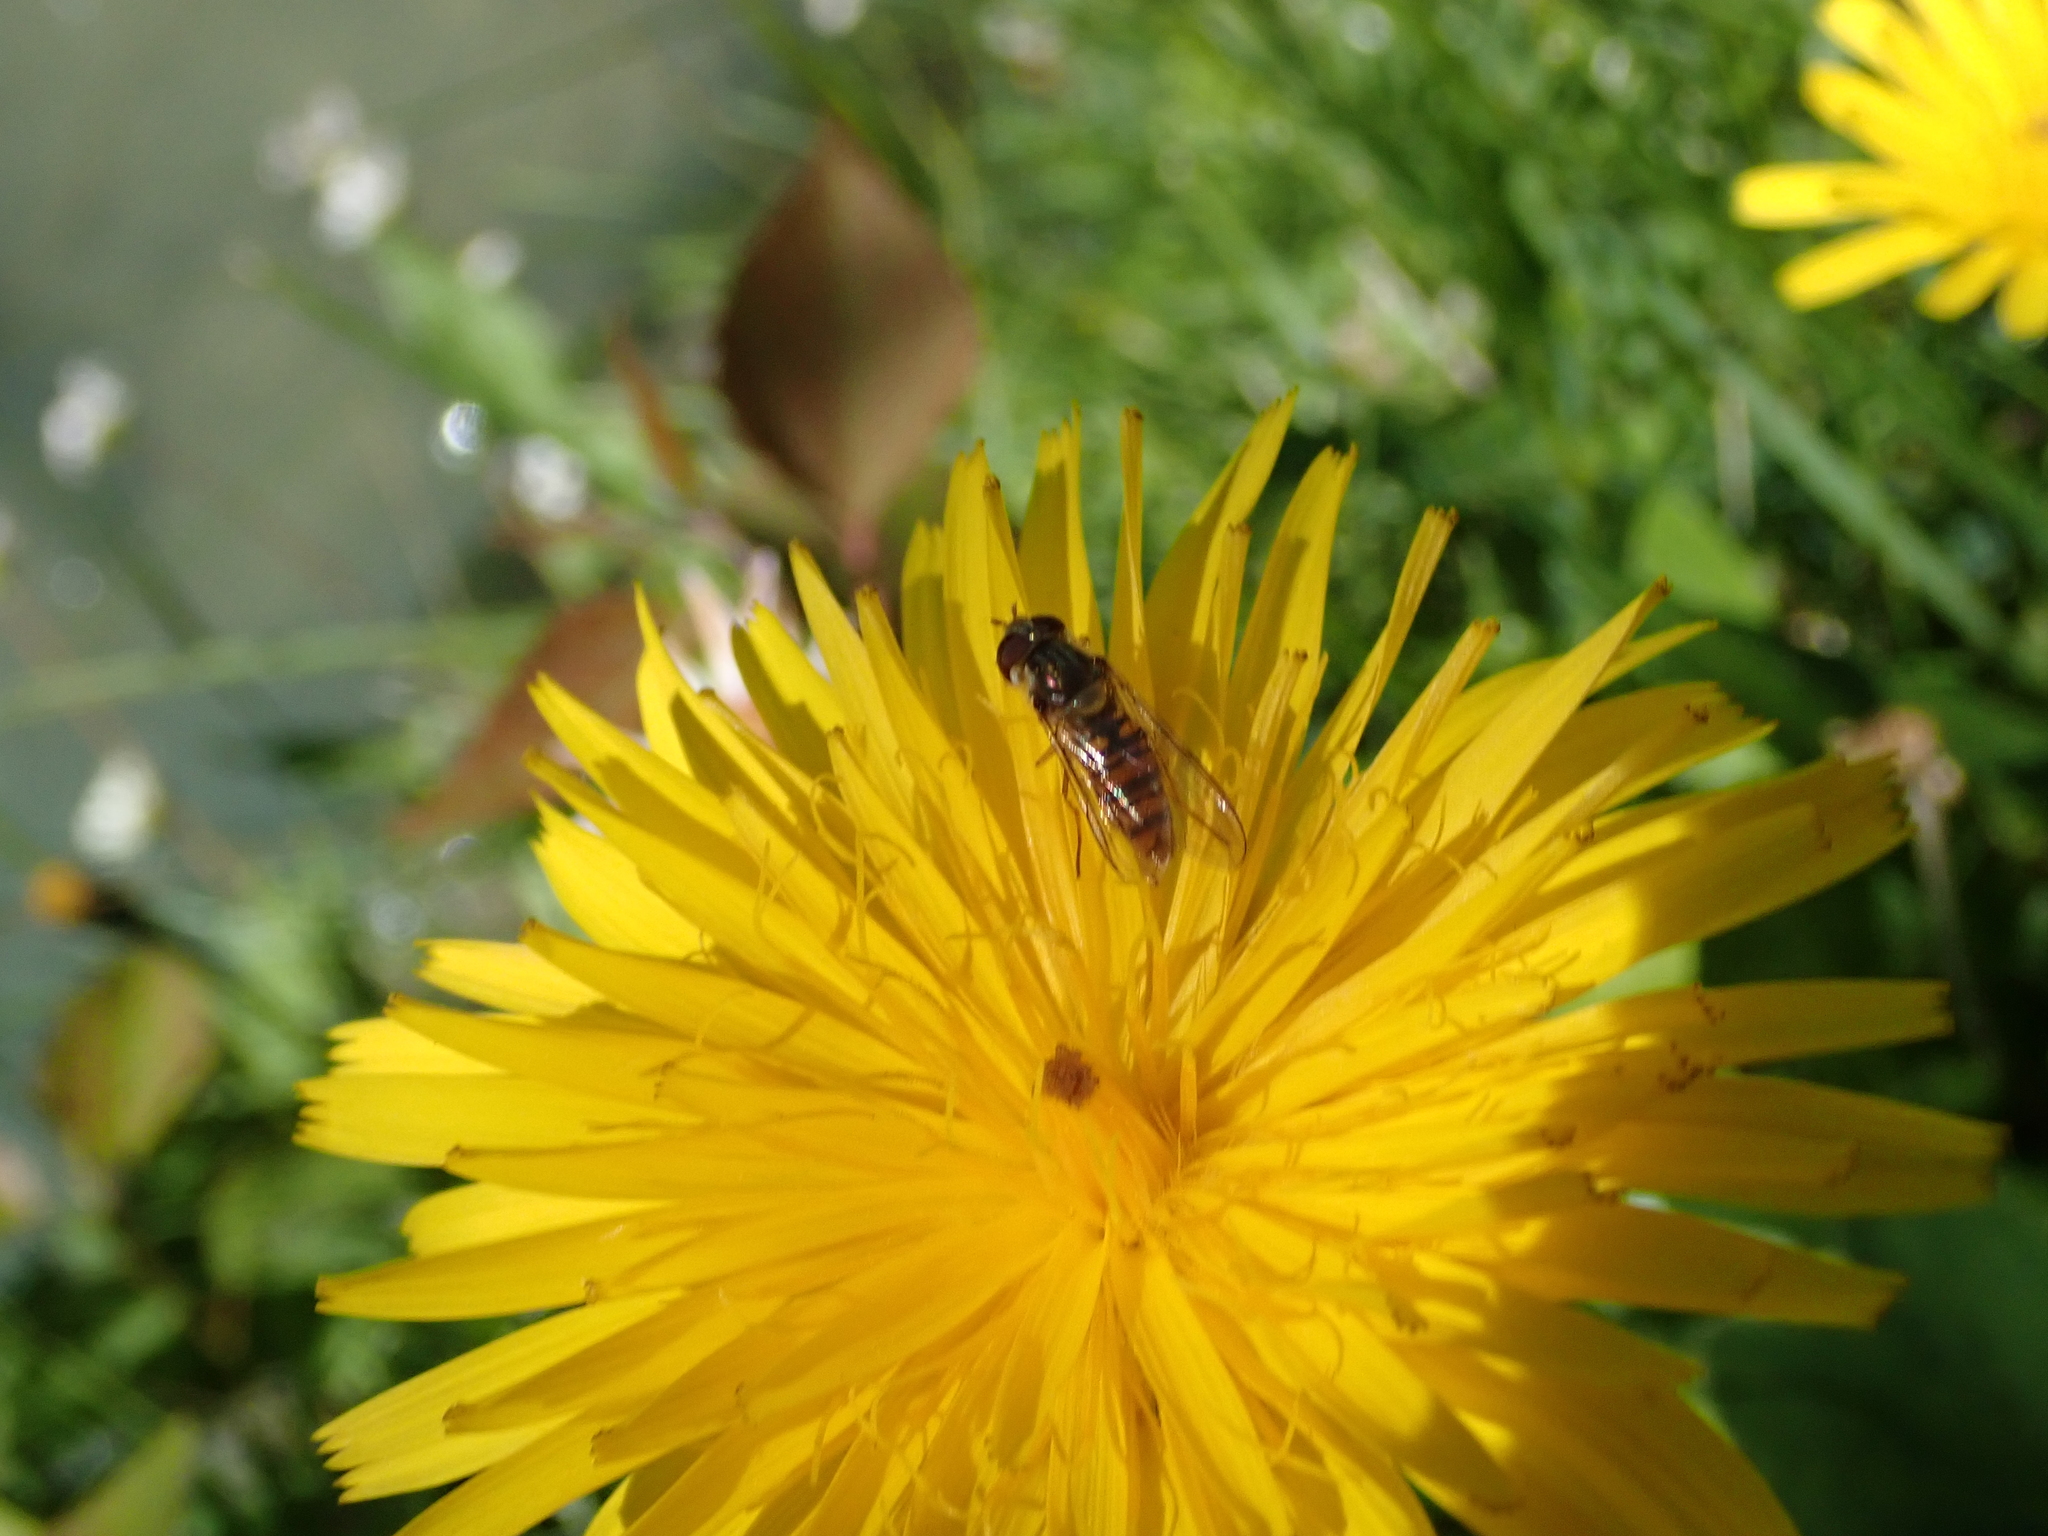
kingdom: Animalia
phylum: Arthropoda
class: Insecta
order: Diptera
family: Syrphidae
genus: Episyrphus
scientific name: Episyrphus balteatus
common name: Marmalade hoverfly
